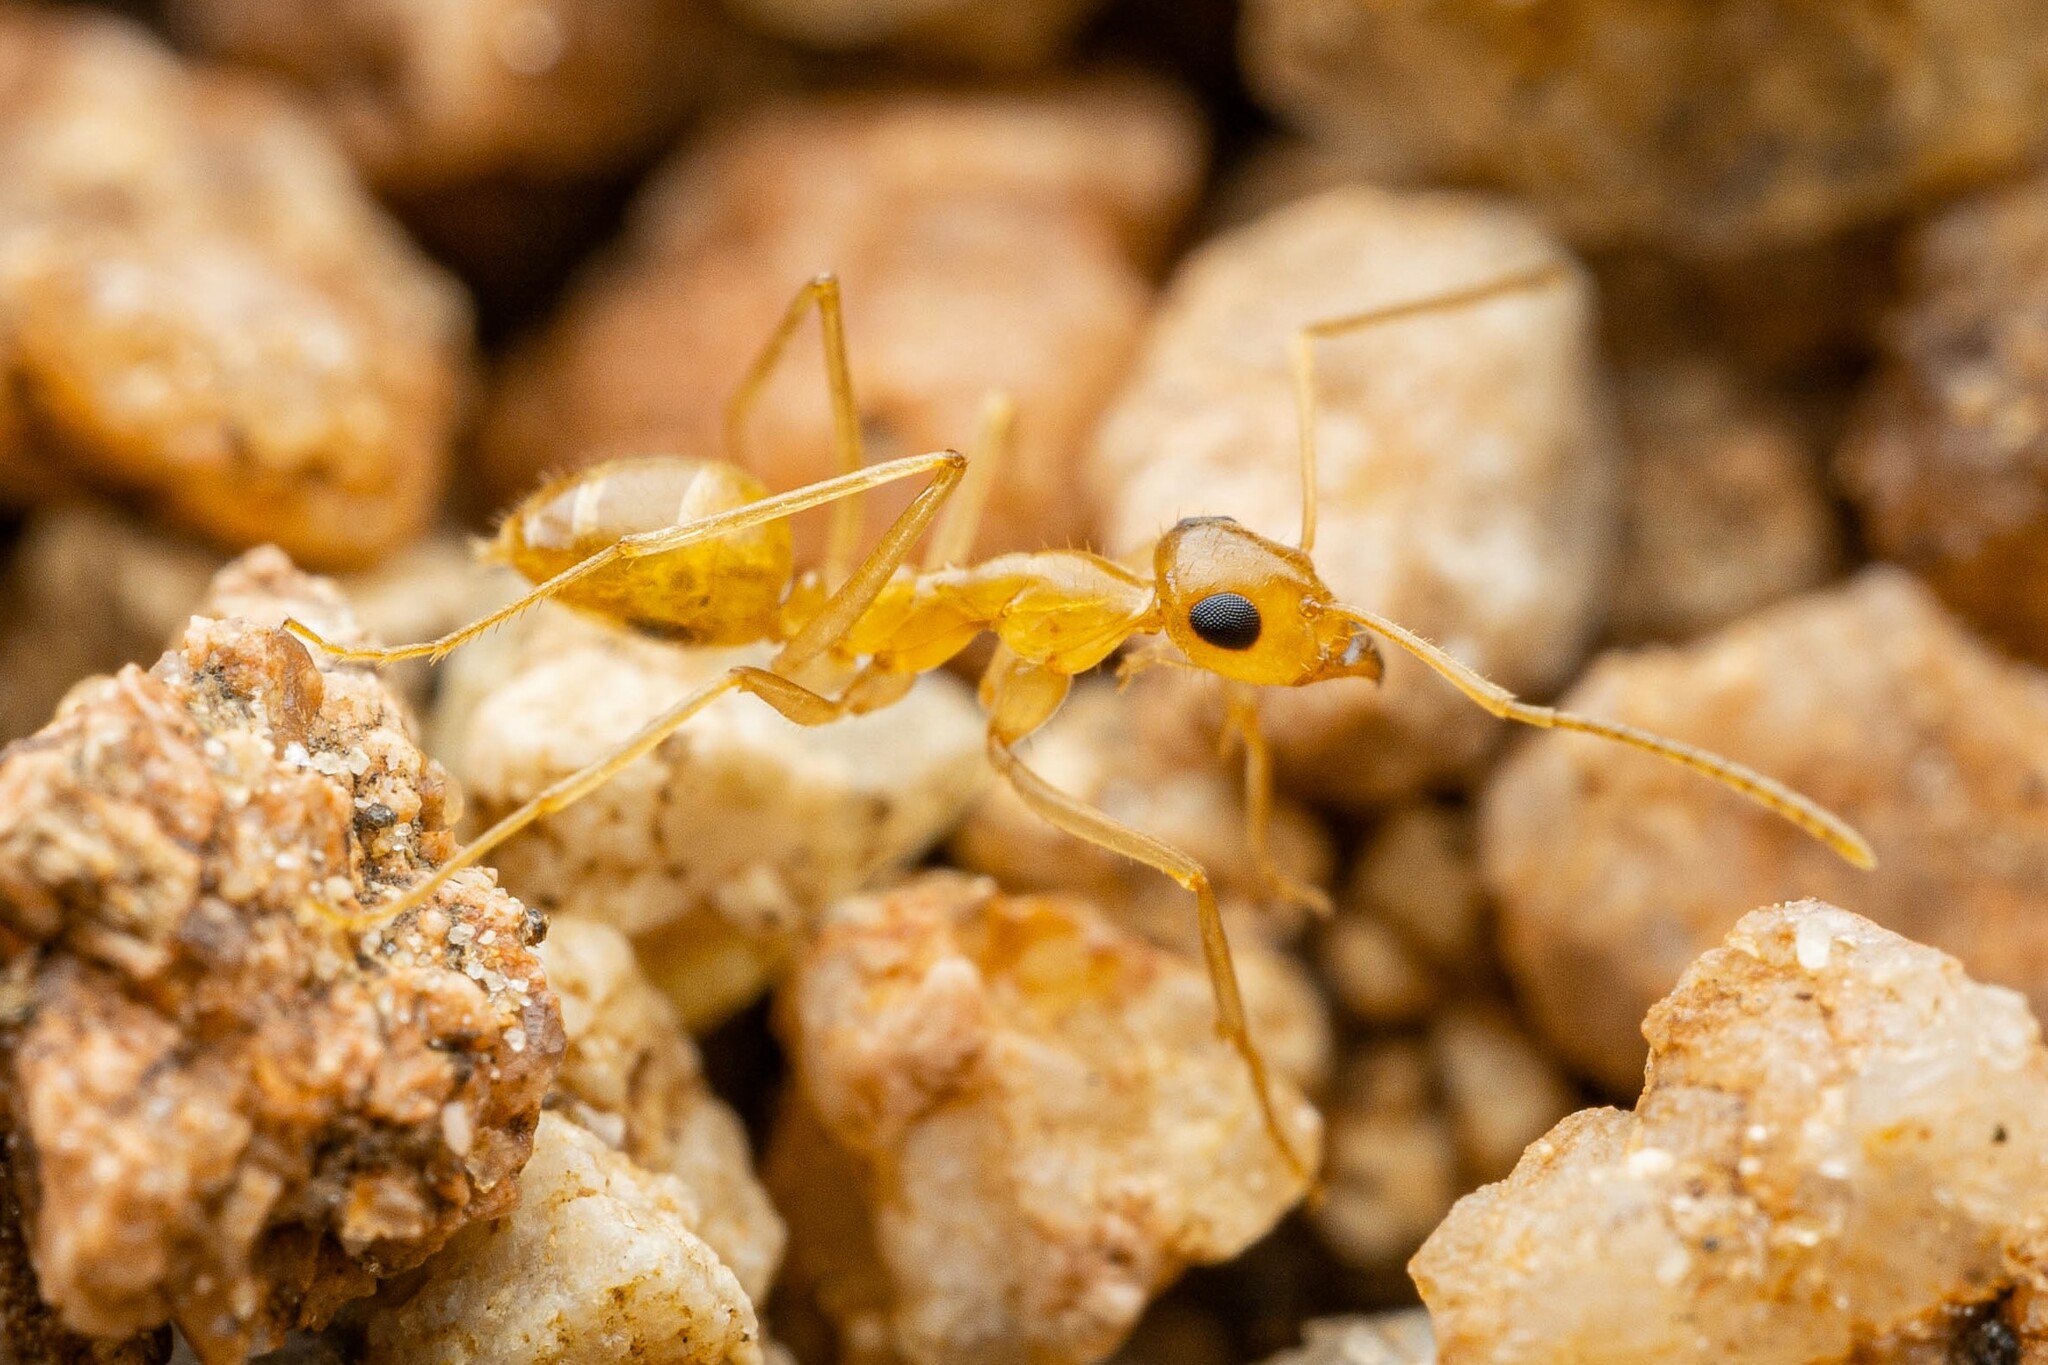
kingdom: Animalia
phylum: Arthropoda
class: Insecta
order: Hymenoptera
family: Formicidae
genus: Myrmecocystus
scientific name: Myrmecocystus navajo
